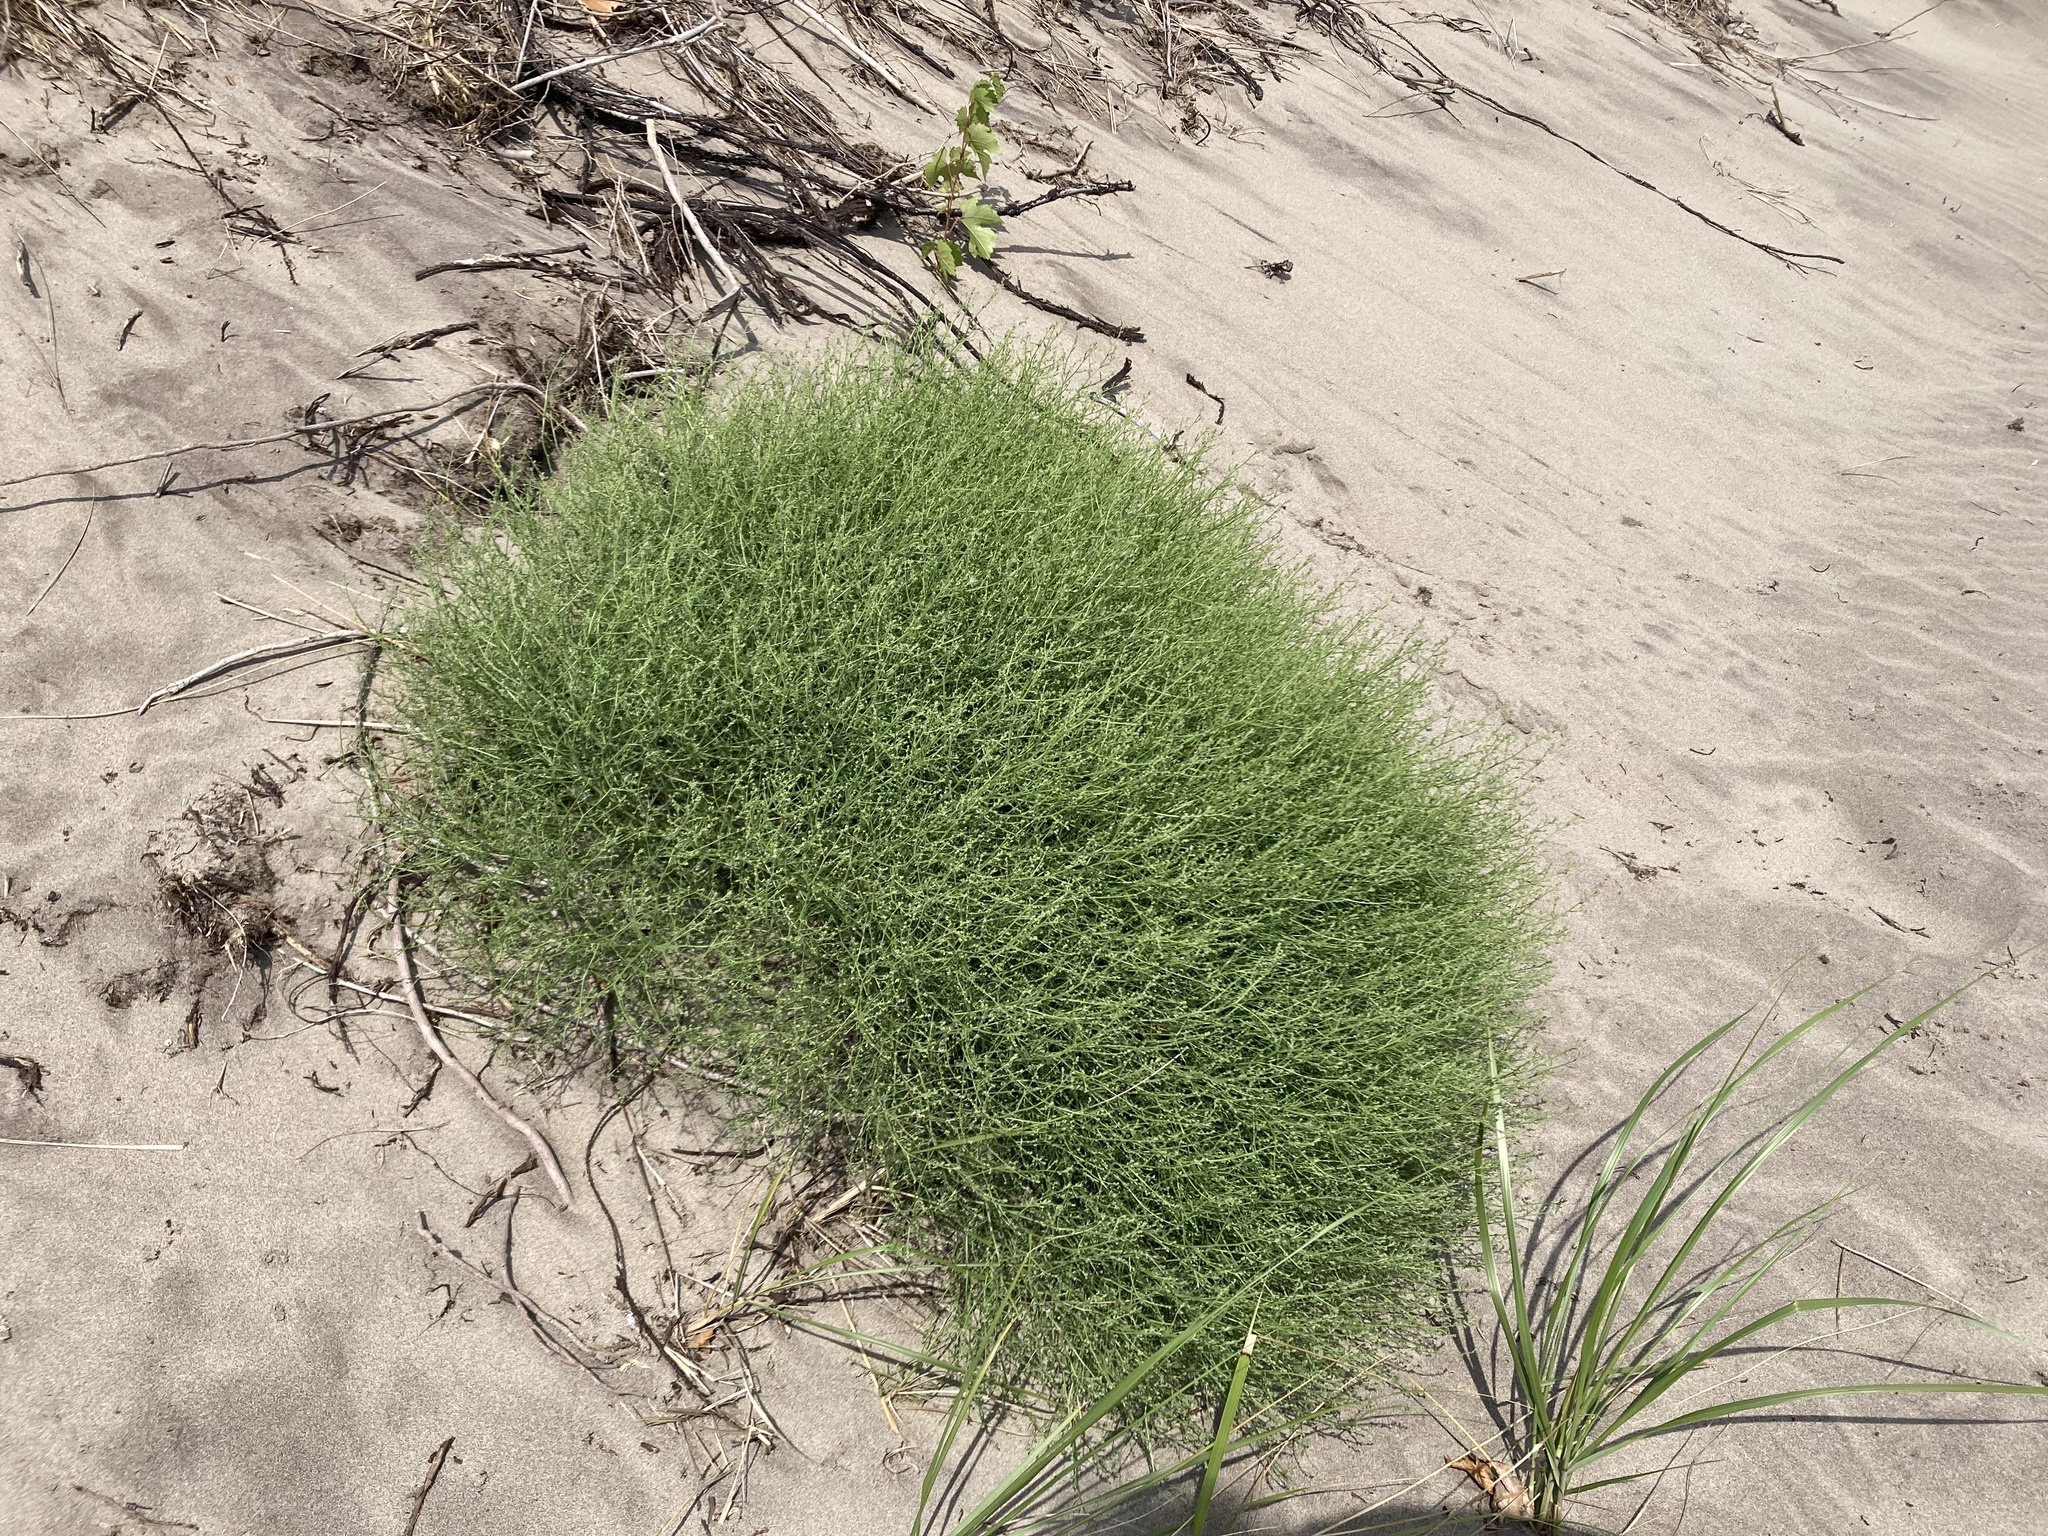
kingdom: Plantae
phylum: Tracheophyta
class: Magnoliopsida
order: Caryophyllales
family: Amaranthaceae
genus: Dysphania
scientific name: Dysphania atriplicifolia
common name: Plains tumbleweed
